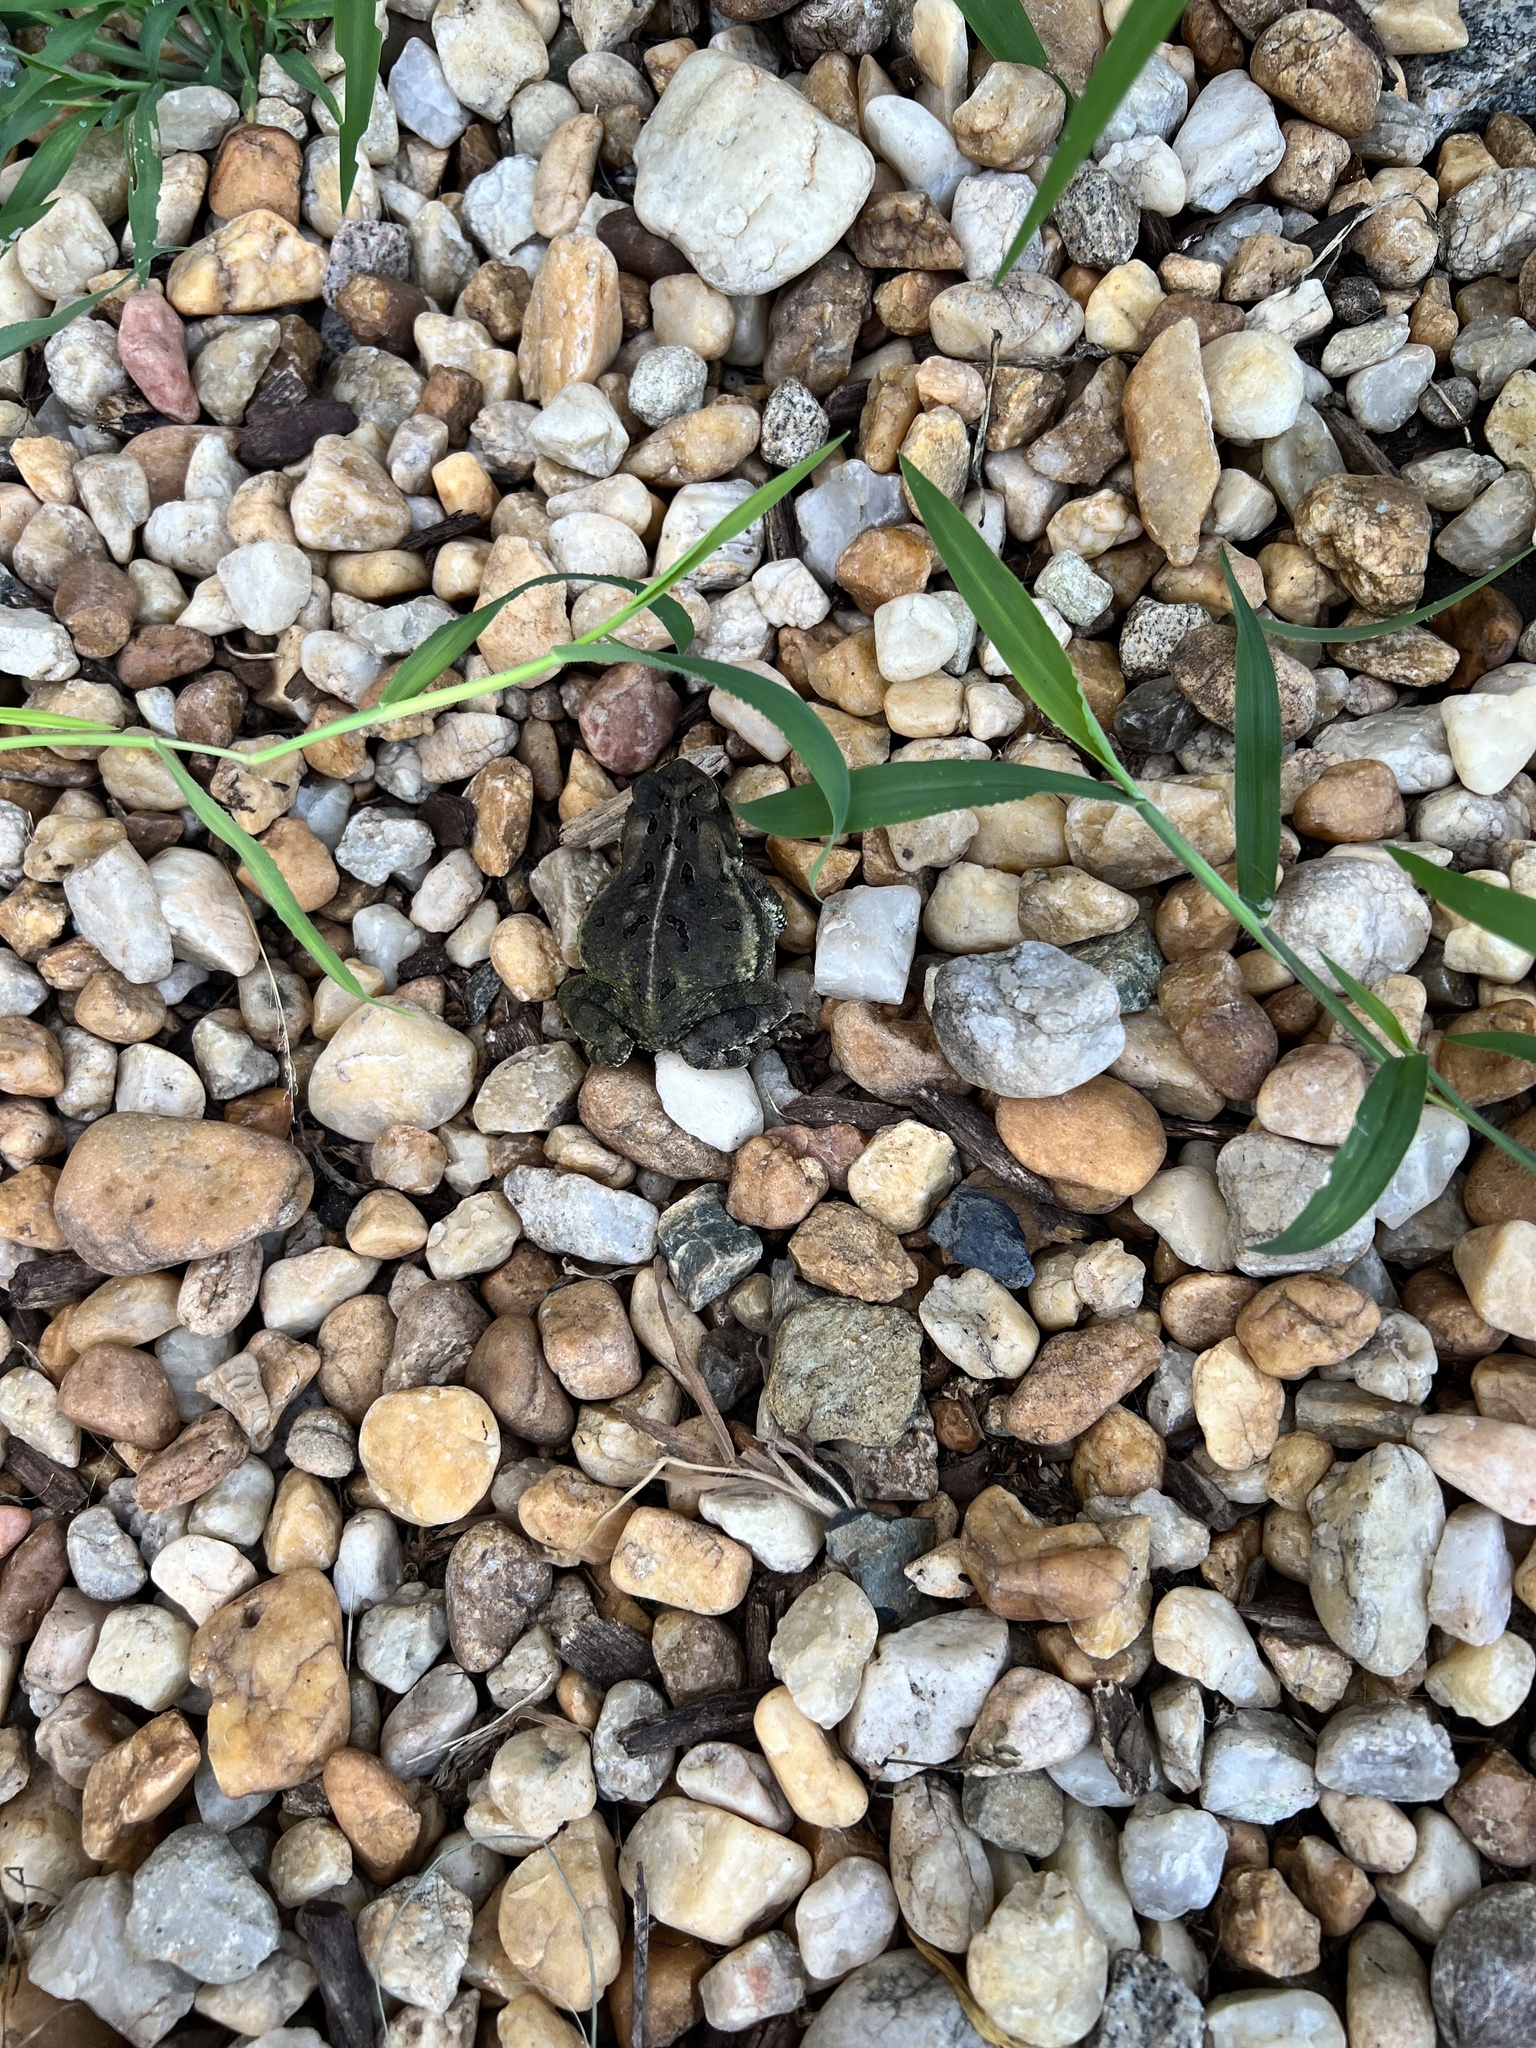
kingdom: Animalia
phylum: Chordata
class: Amphibia
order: Anura
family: Bufonidae
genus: Anaxyrus
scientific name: Anaxyrus fowleri
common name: Fowler's toad
